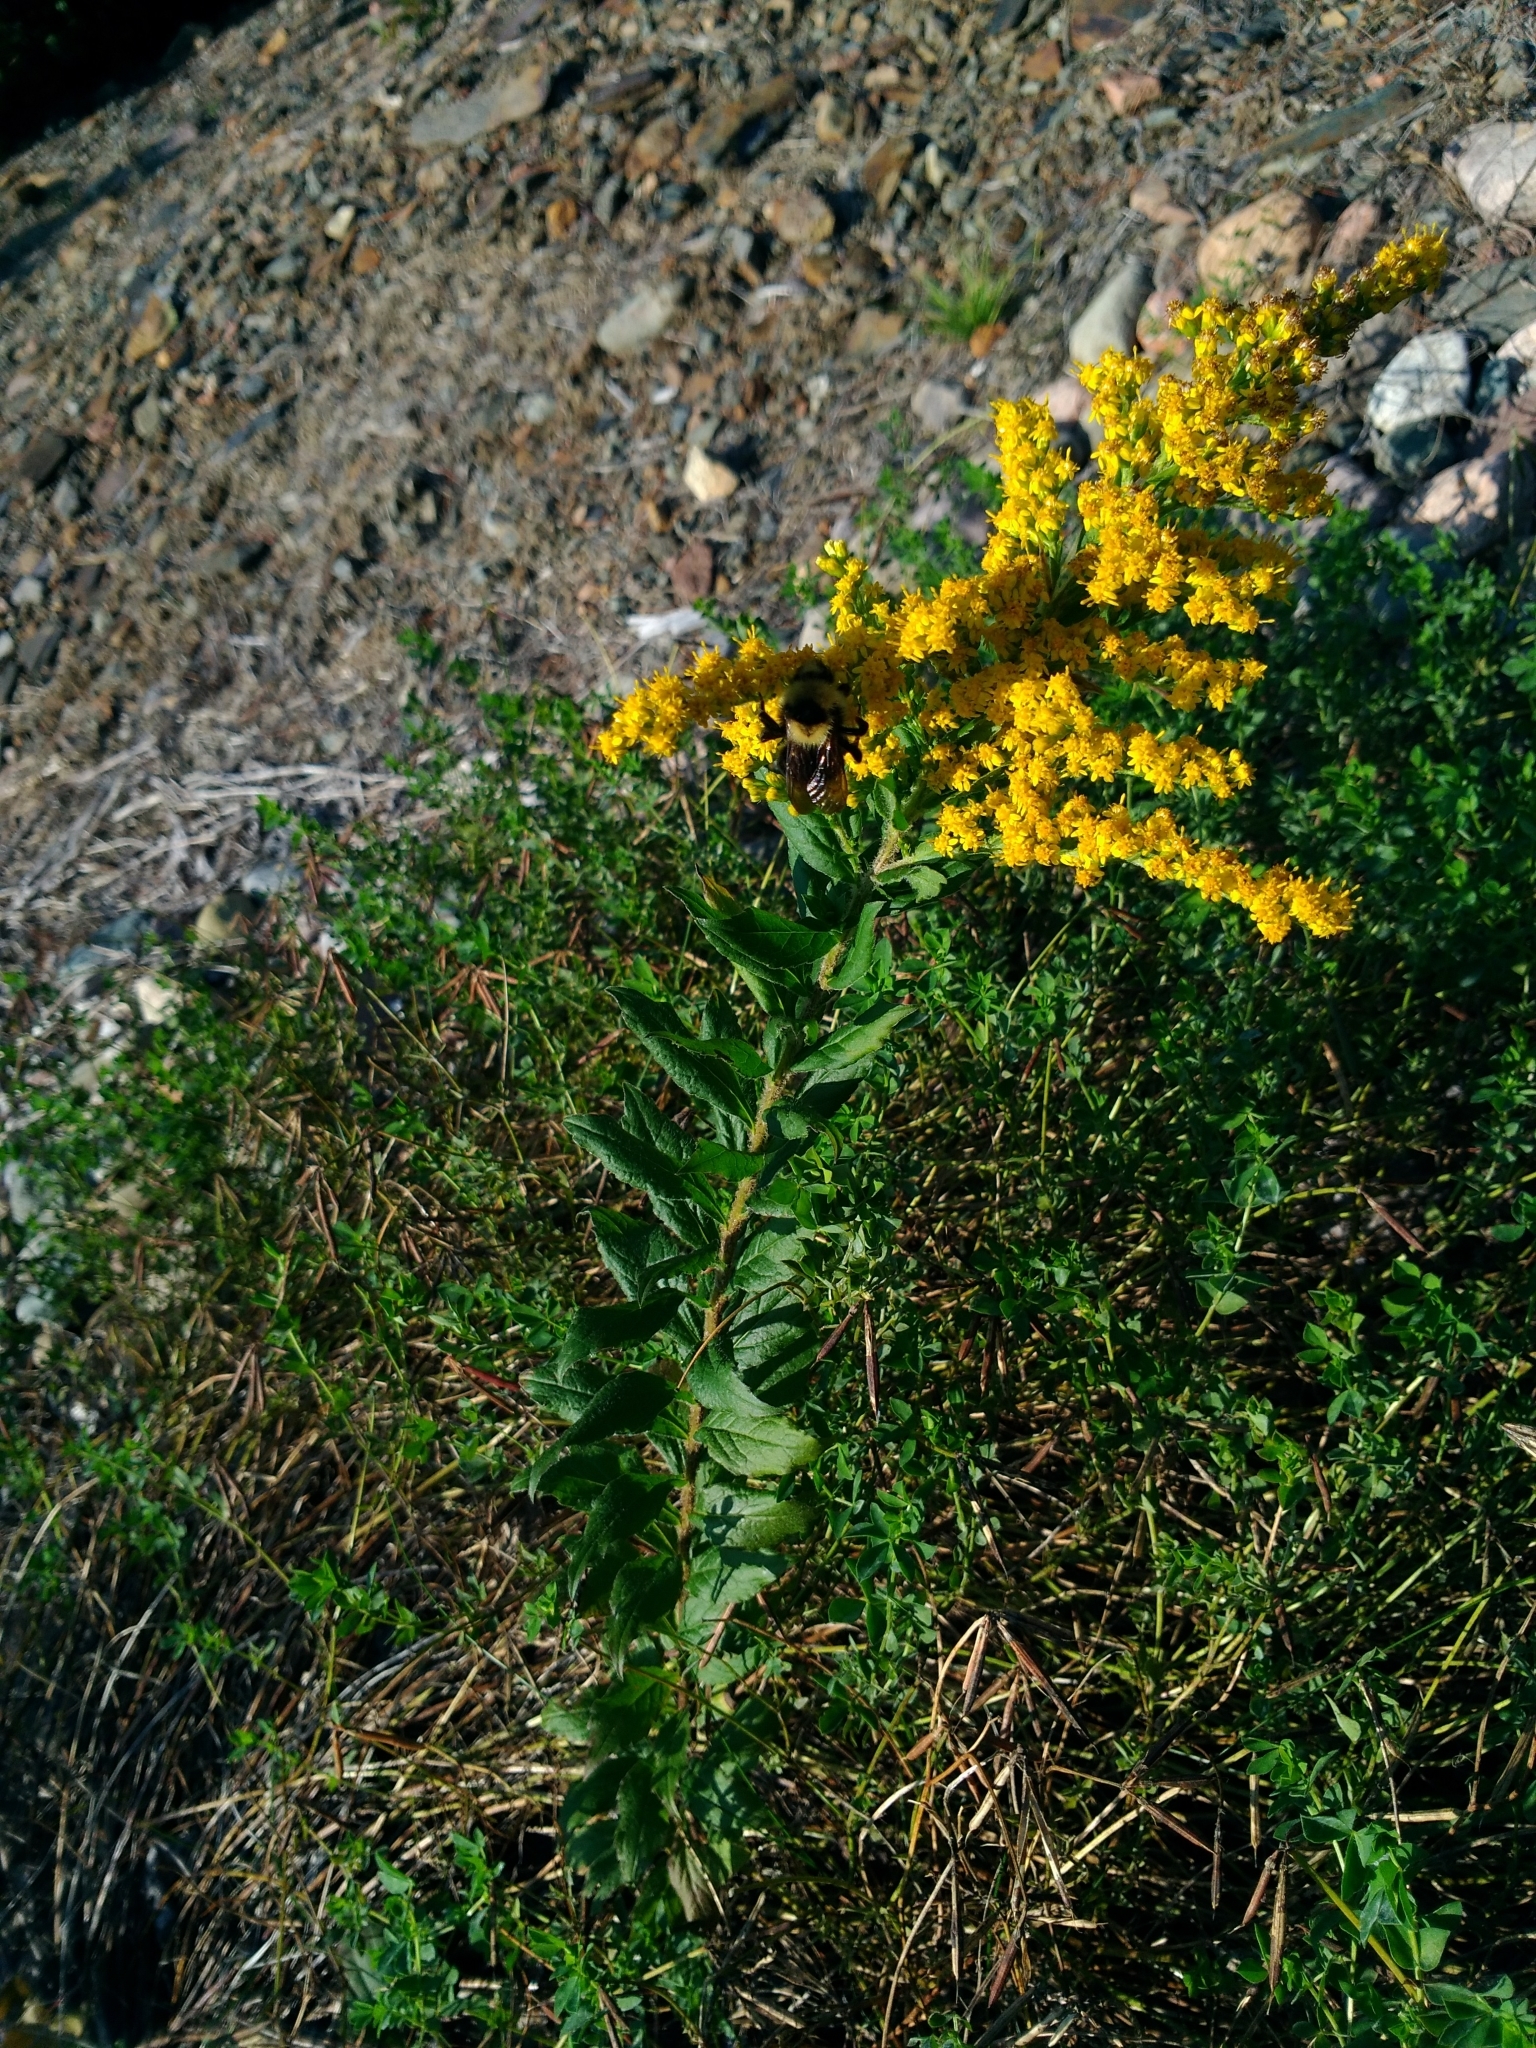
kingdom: Plantae
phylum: Tracheophyta
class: Magnoliopsida
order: Asterales
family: Asteraceae
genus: Solidago
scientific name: Solidago canadensis
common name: Canada goldenrod
